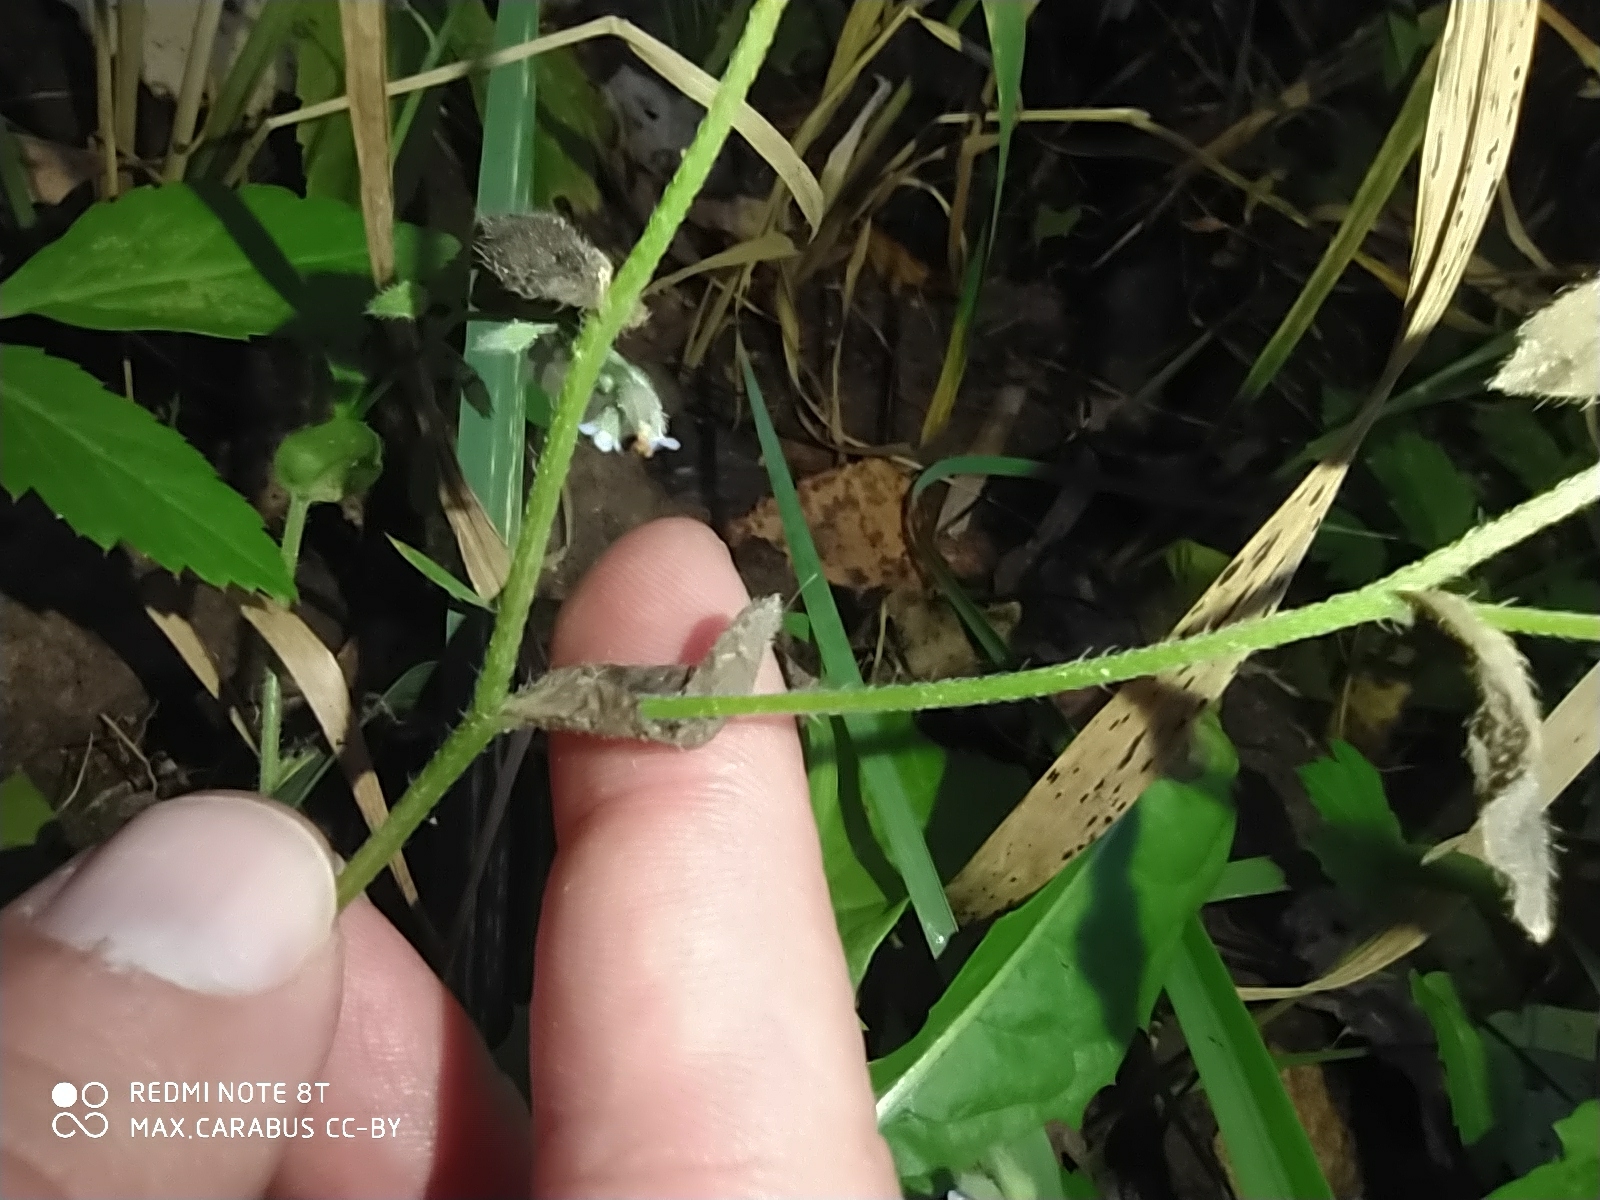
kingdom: Plantae
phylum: Tracheophyta
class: Magnoliopsida
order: Boraginales
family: Boraginaceae
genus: Myosotis
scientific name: Myosotis arvensis
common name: Field forget-me-not
